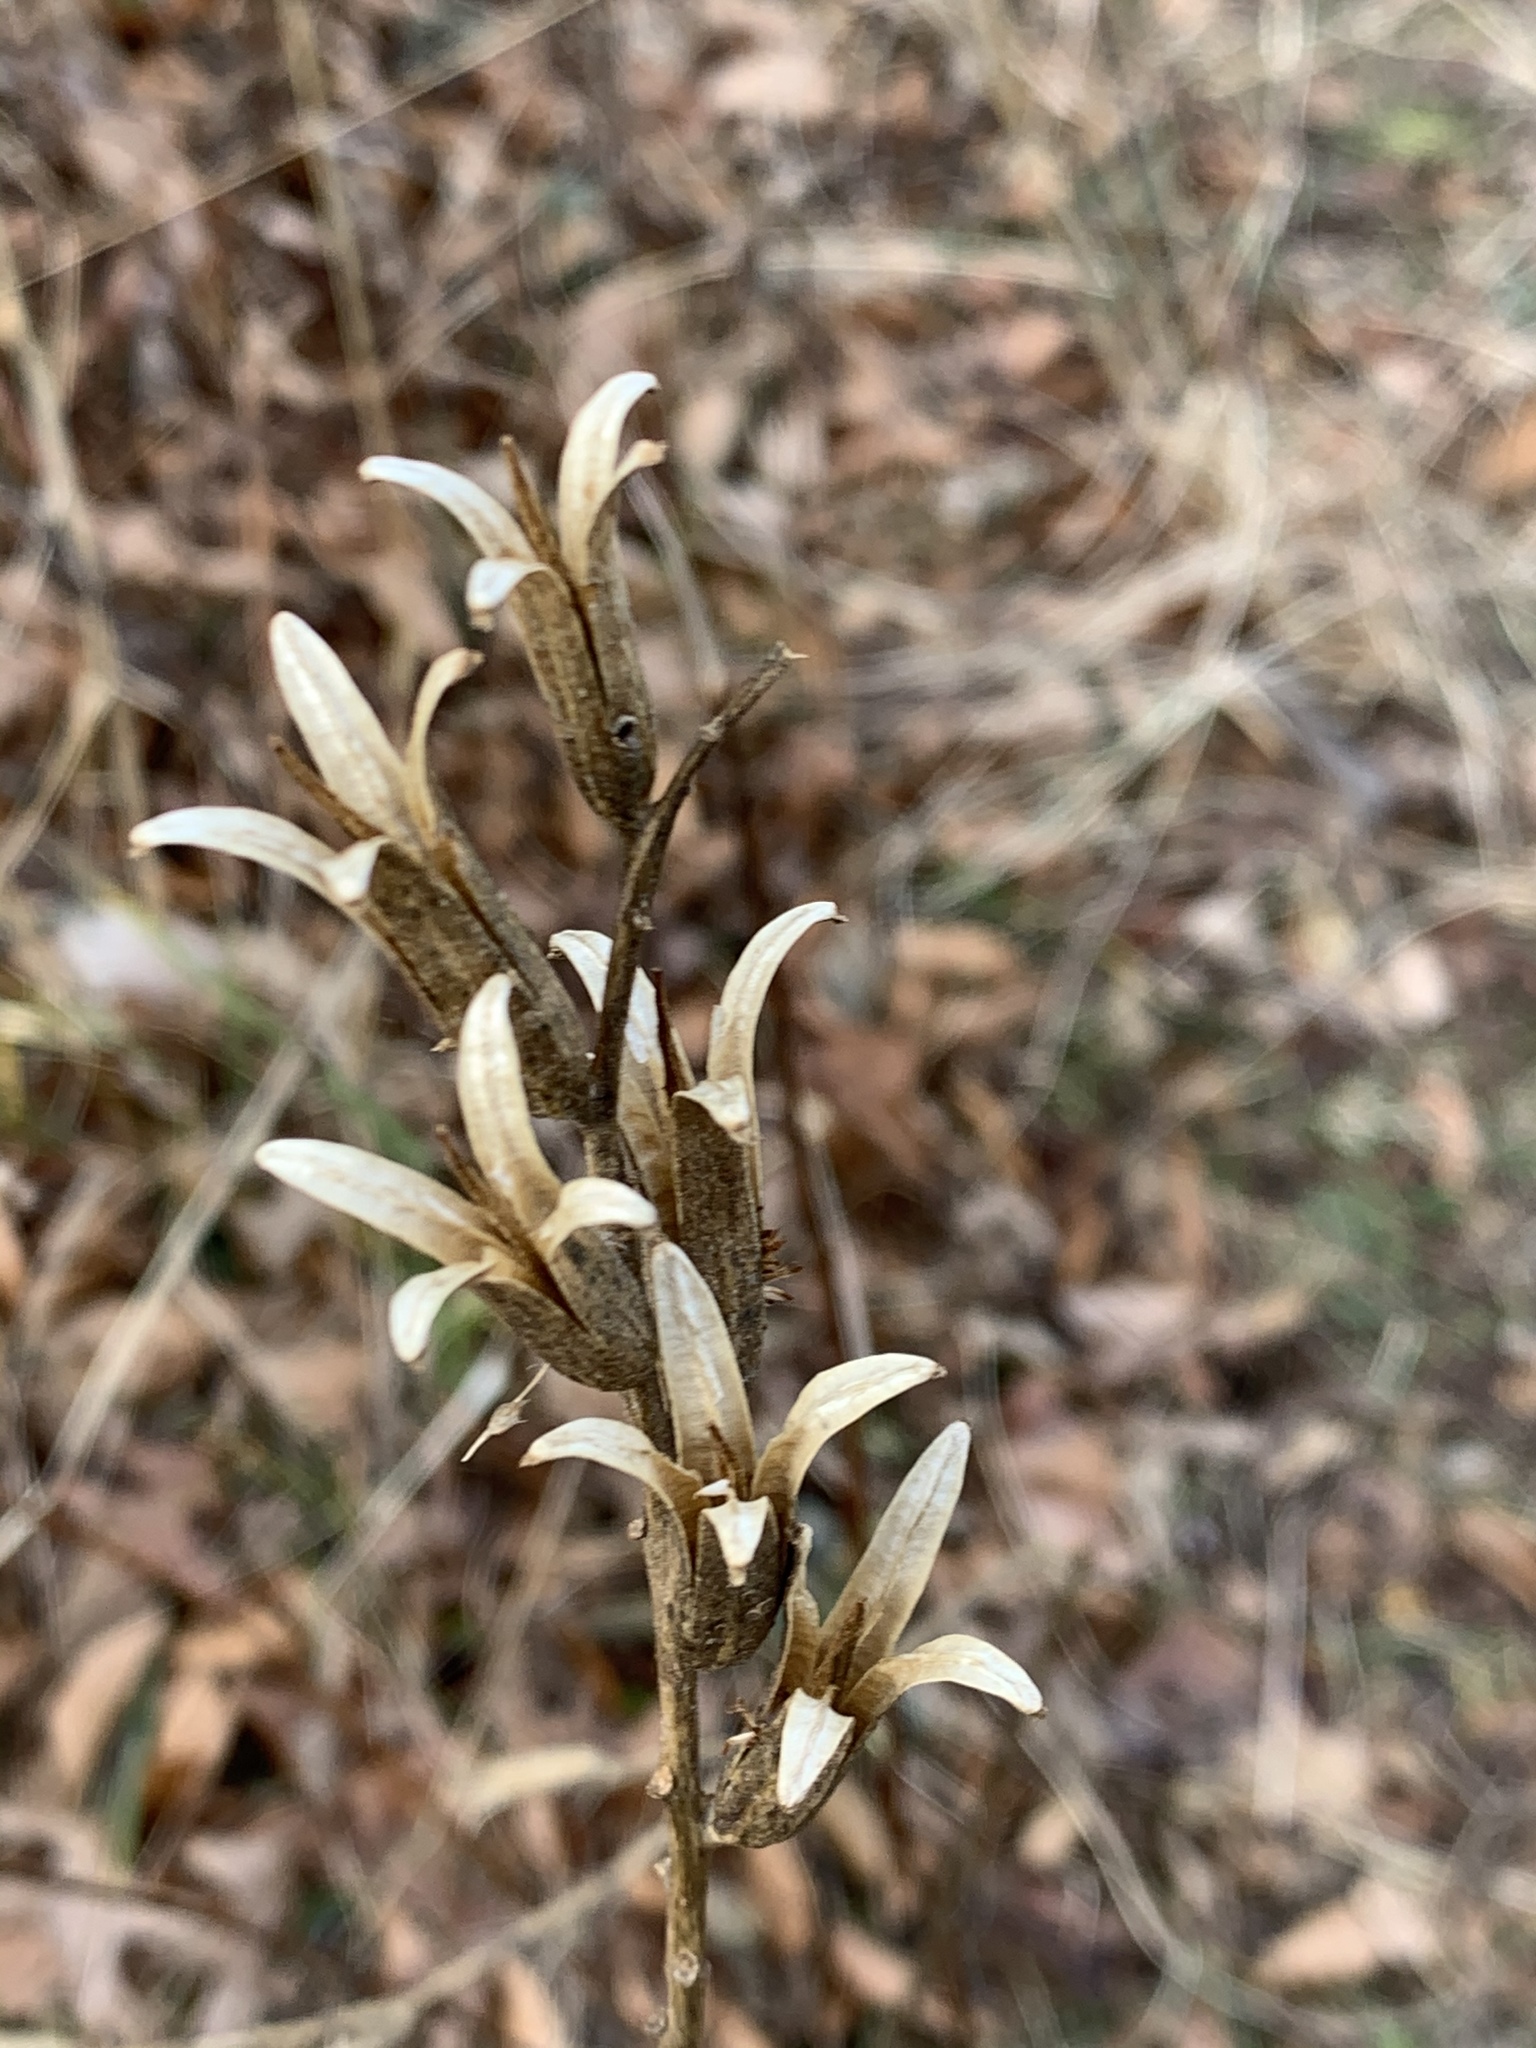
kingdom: Plantae
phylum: Tracheophyta
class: Magnoliopsida
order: Myrtales
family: Onagraceae
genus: Oenothera
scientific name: Oenothera biennis
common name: Common evening-primrose
